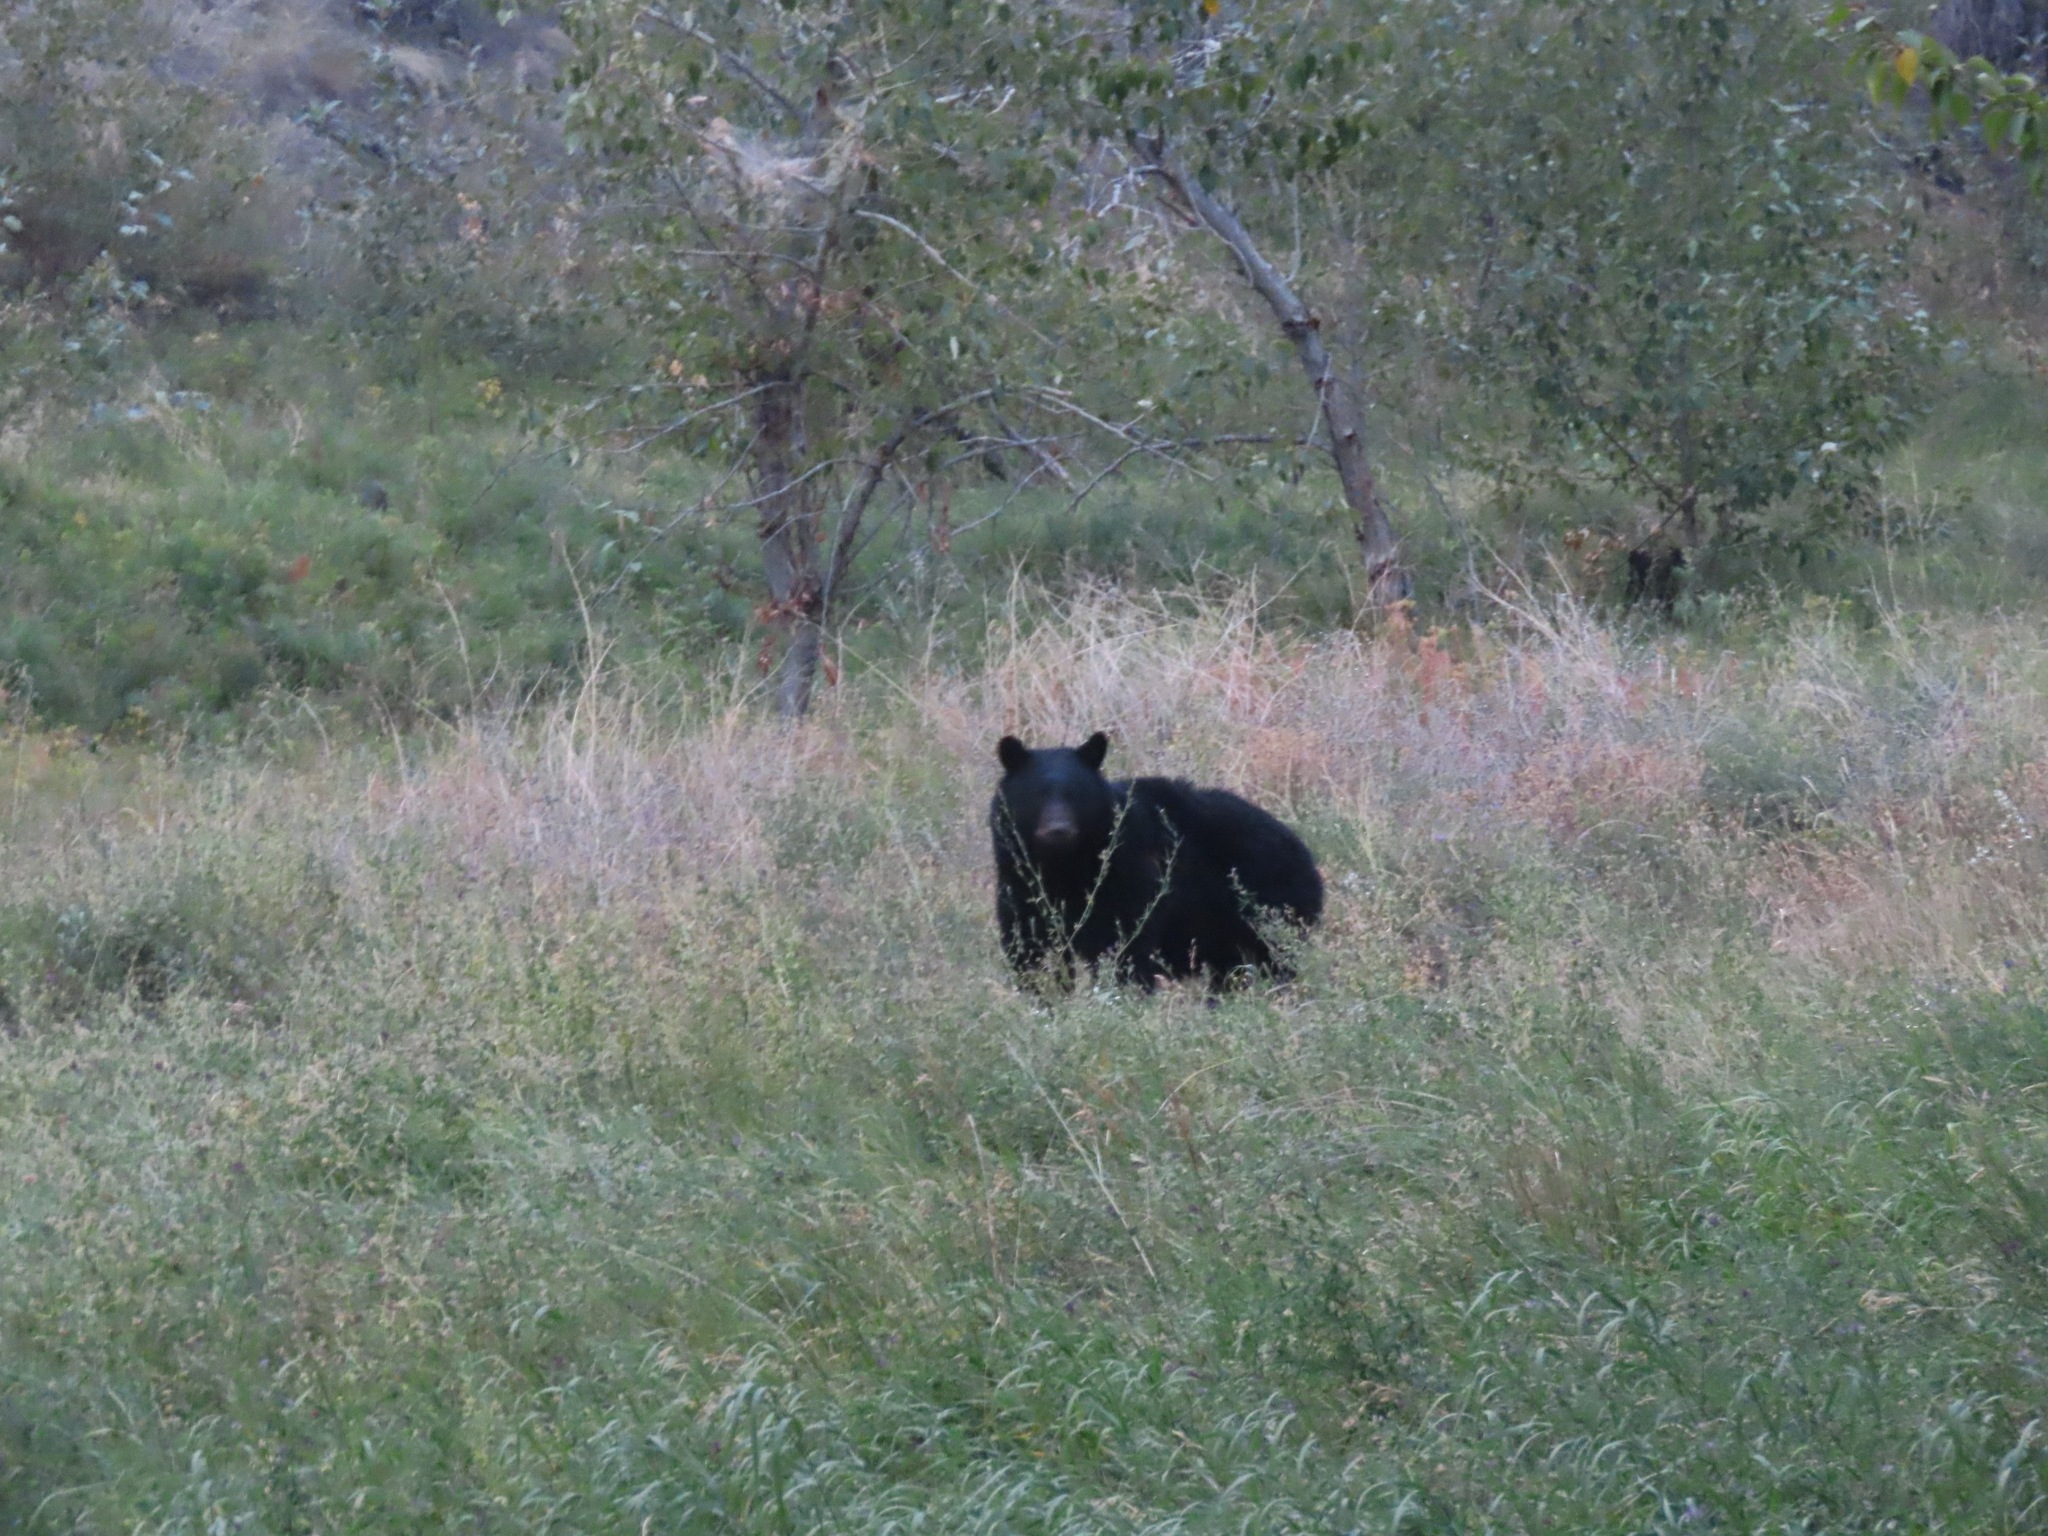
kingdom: Animalia
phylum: Chordata
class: Mammalia
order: Carnivora
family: Ursidae
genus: Ursus
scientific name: Ursus americanus
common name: American black bear
